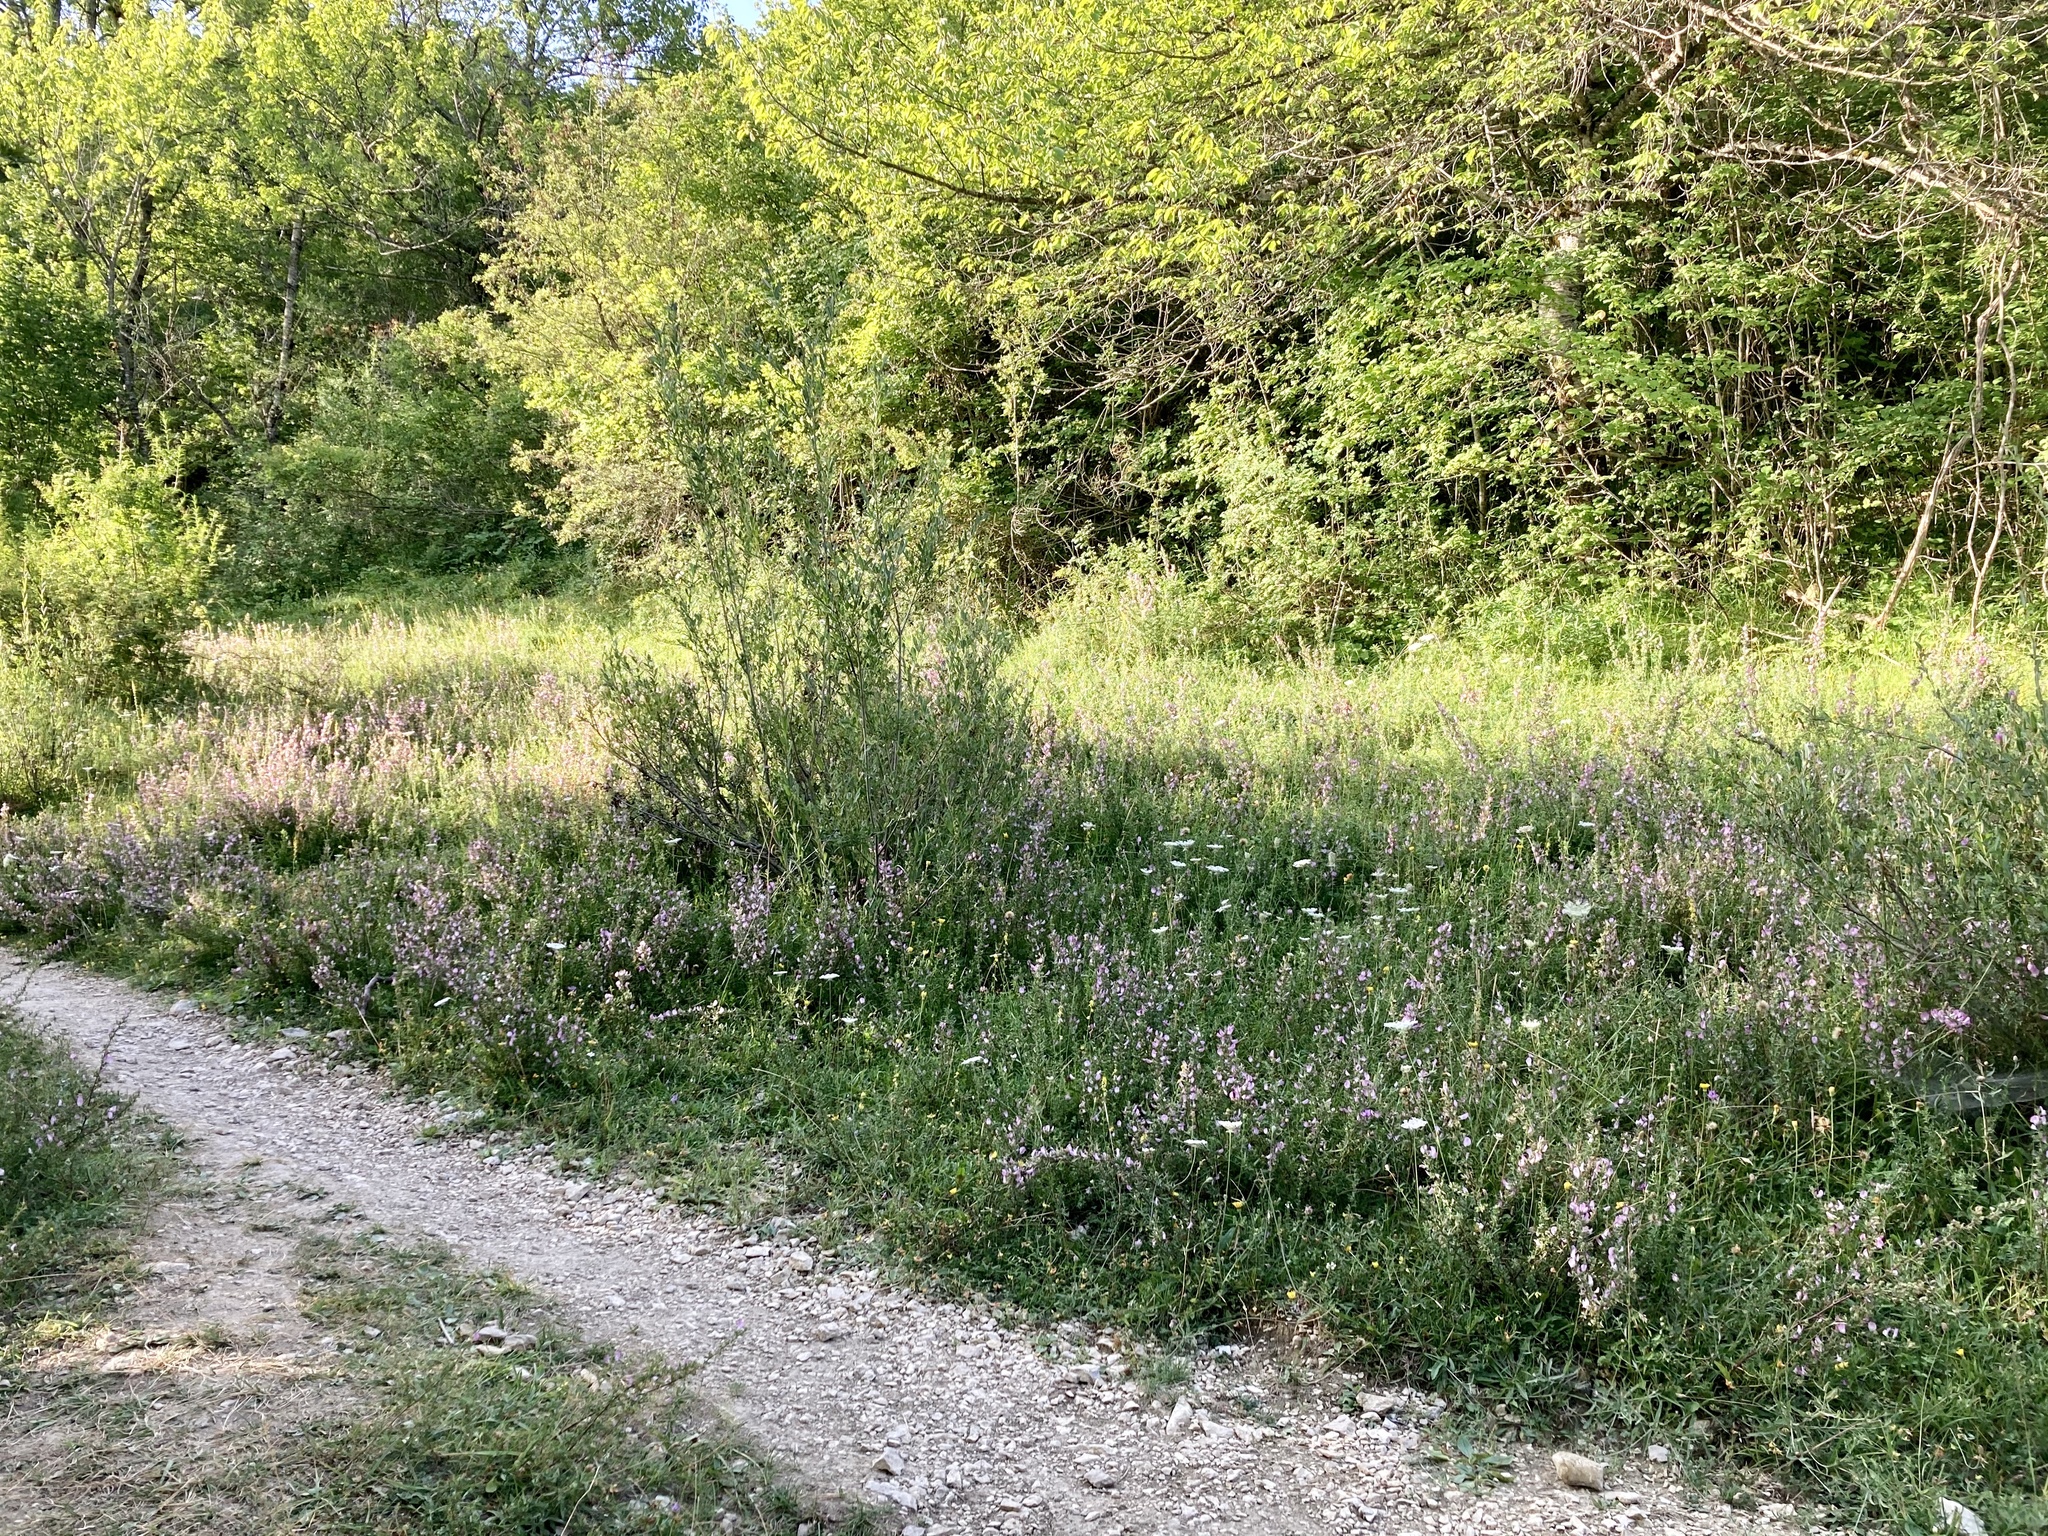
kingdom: Plantae
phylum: Tracheophyta
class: Magnoliopsida
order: Fabales
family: Fabaceae
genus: Ononis
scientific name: Ononis spinosa
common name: Spiny restharrow
